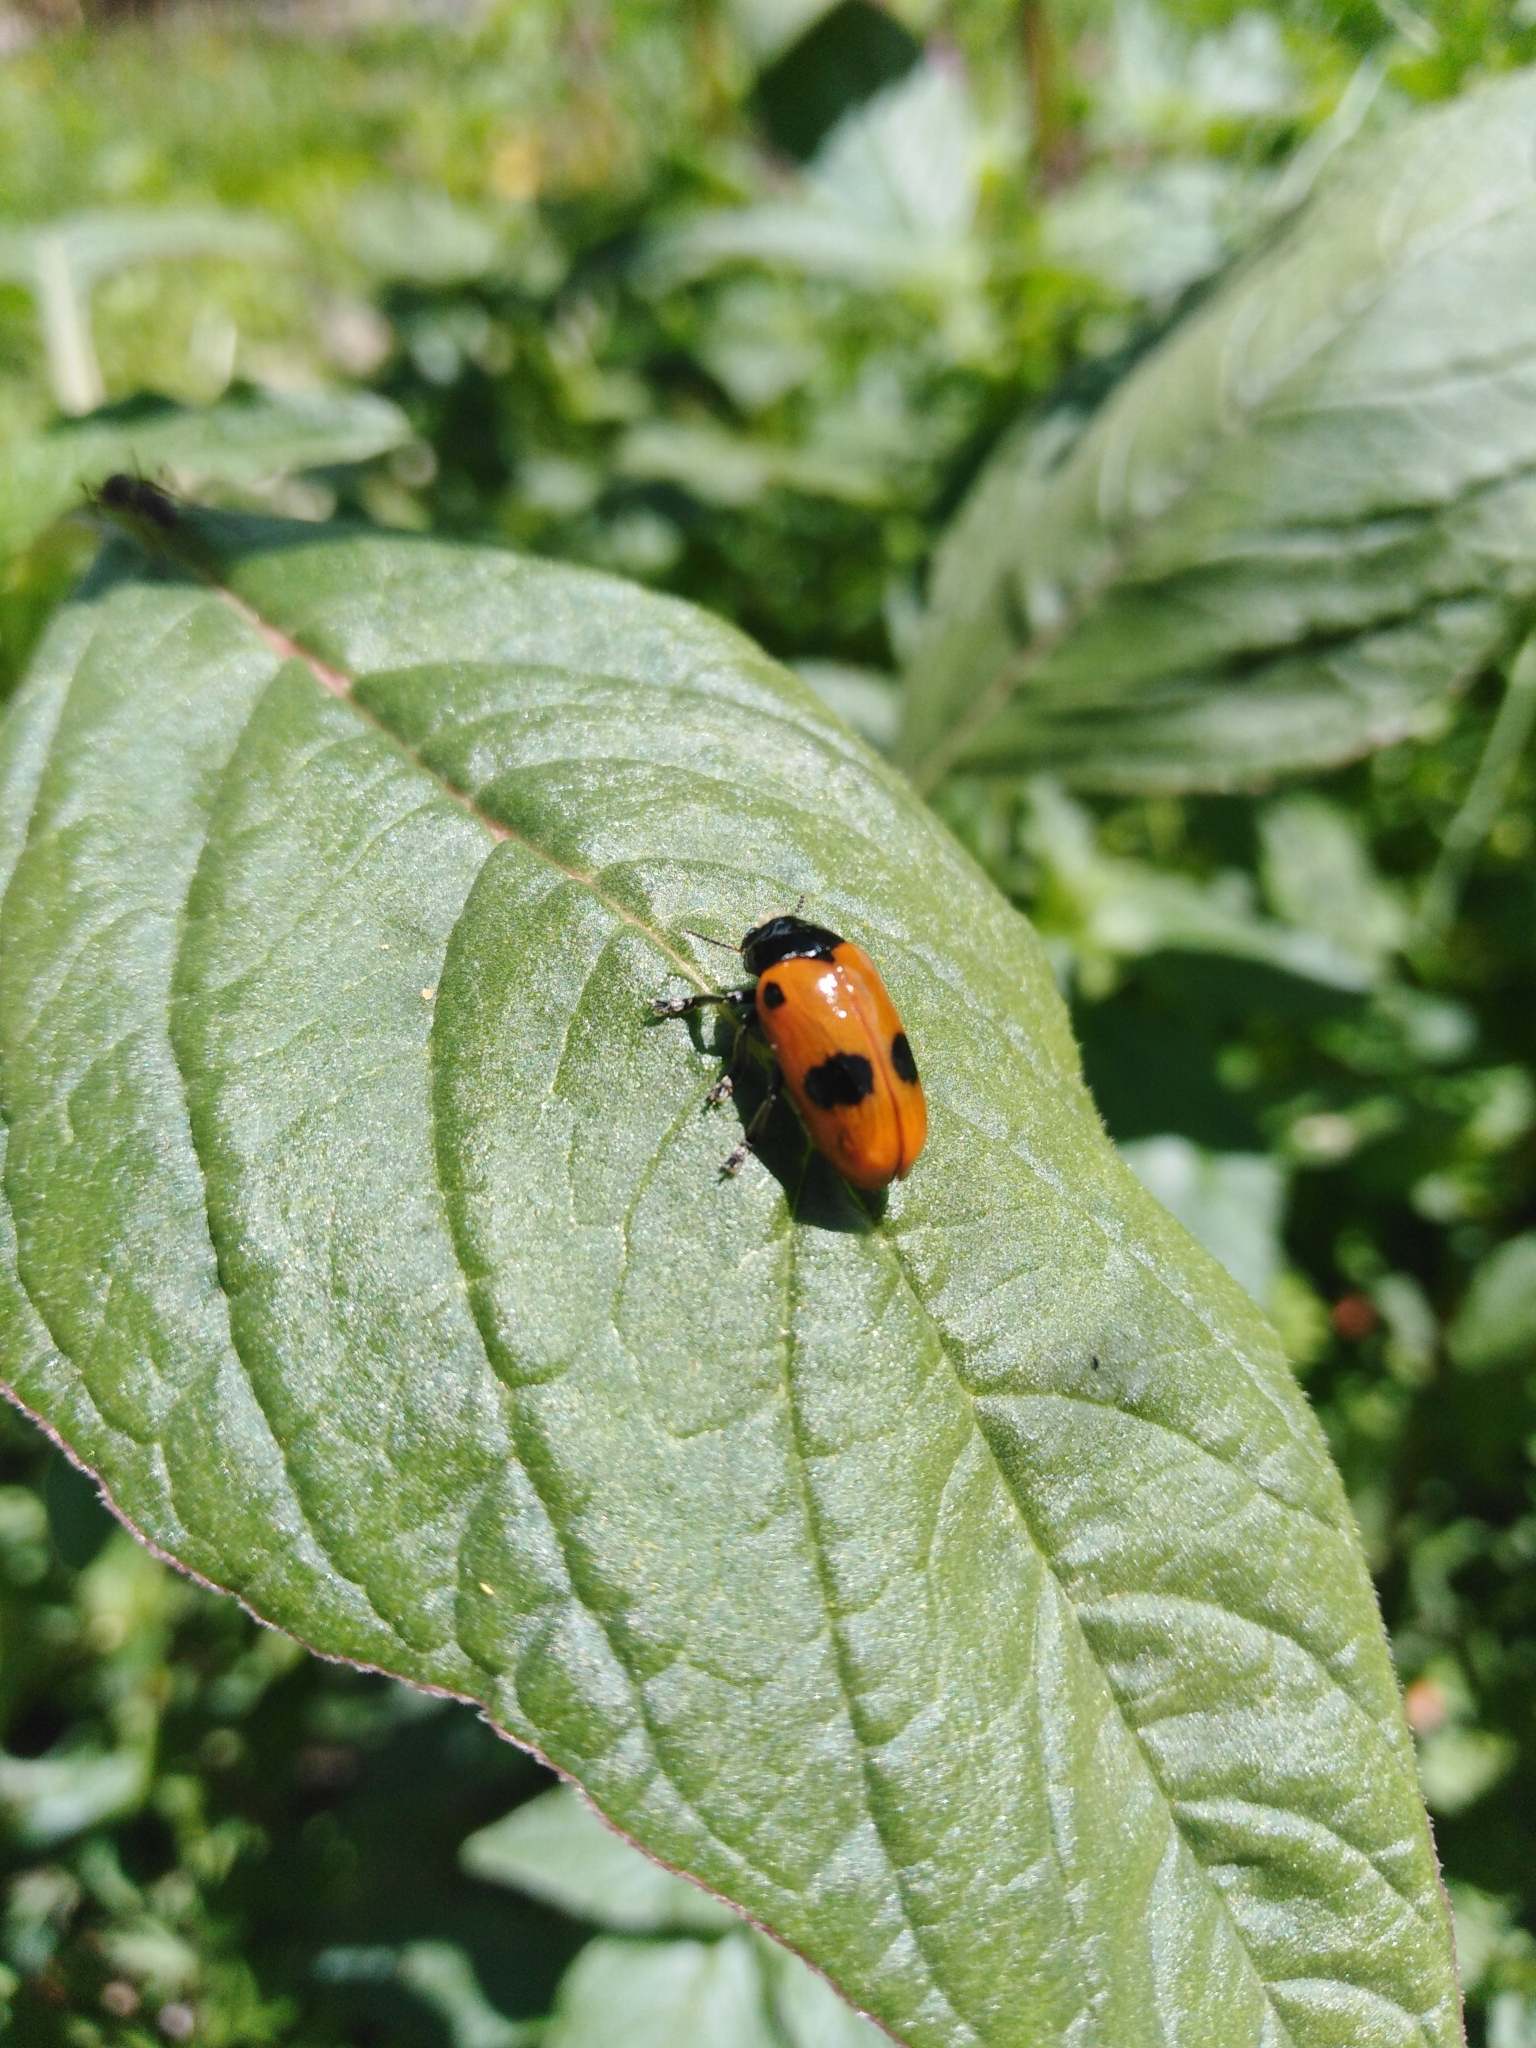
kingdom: Animalia
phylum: Arthropoda
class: Insecta
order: Coleoptera
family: Chrysomelidae
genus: Clytra
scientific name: Clytra laeviuscula
